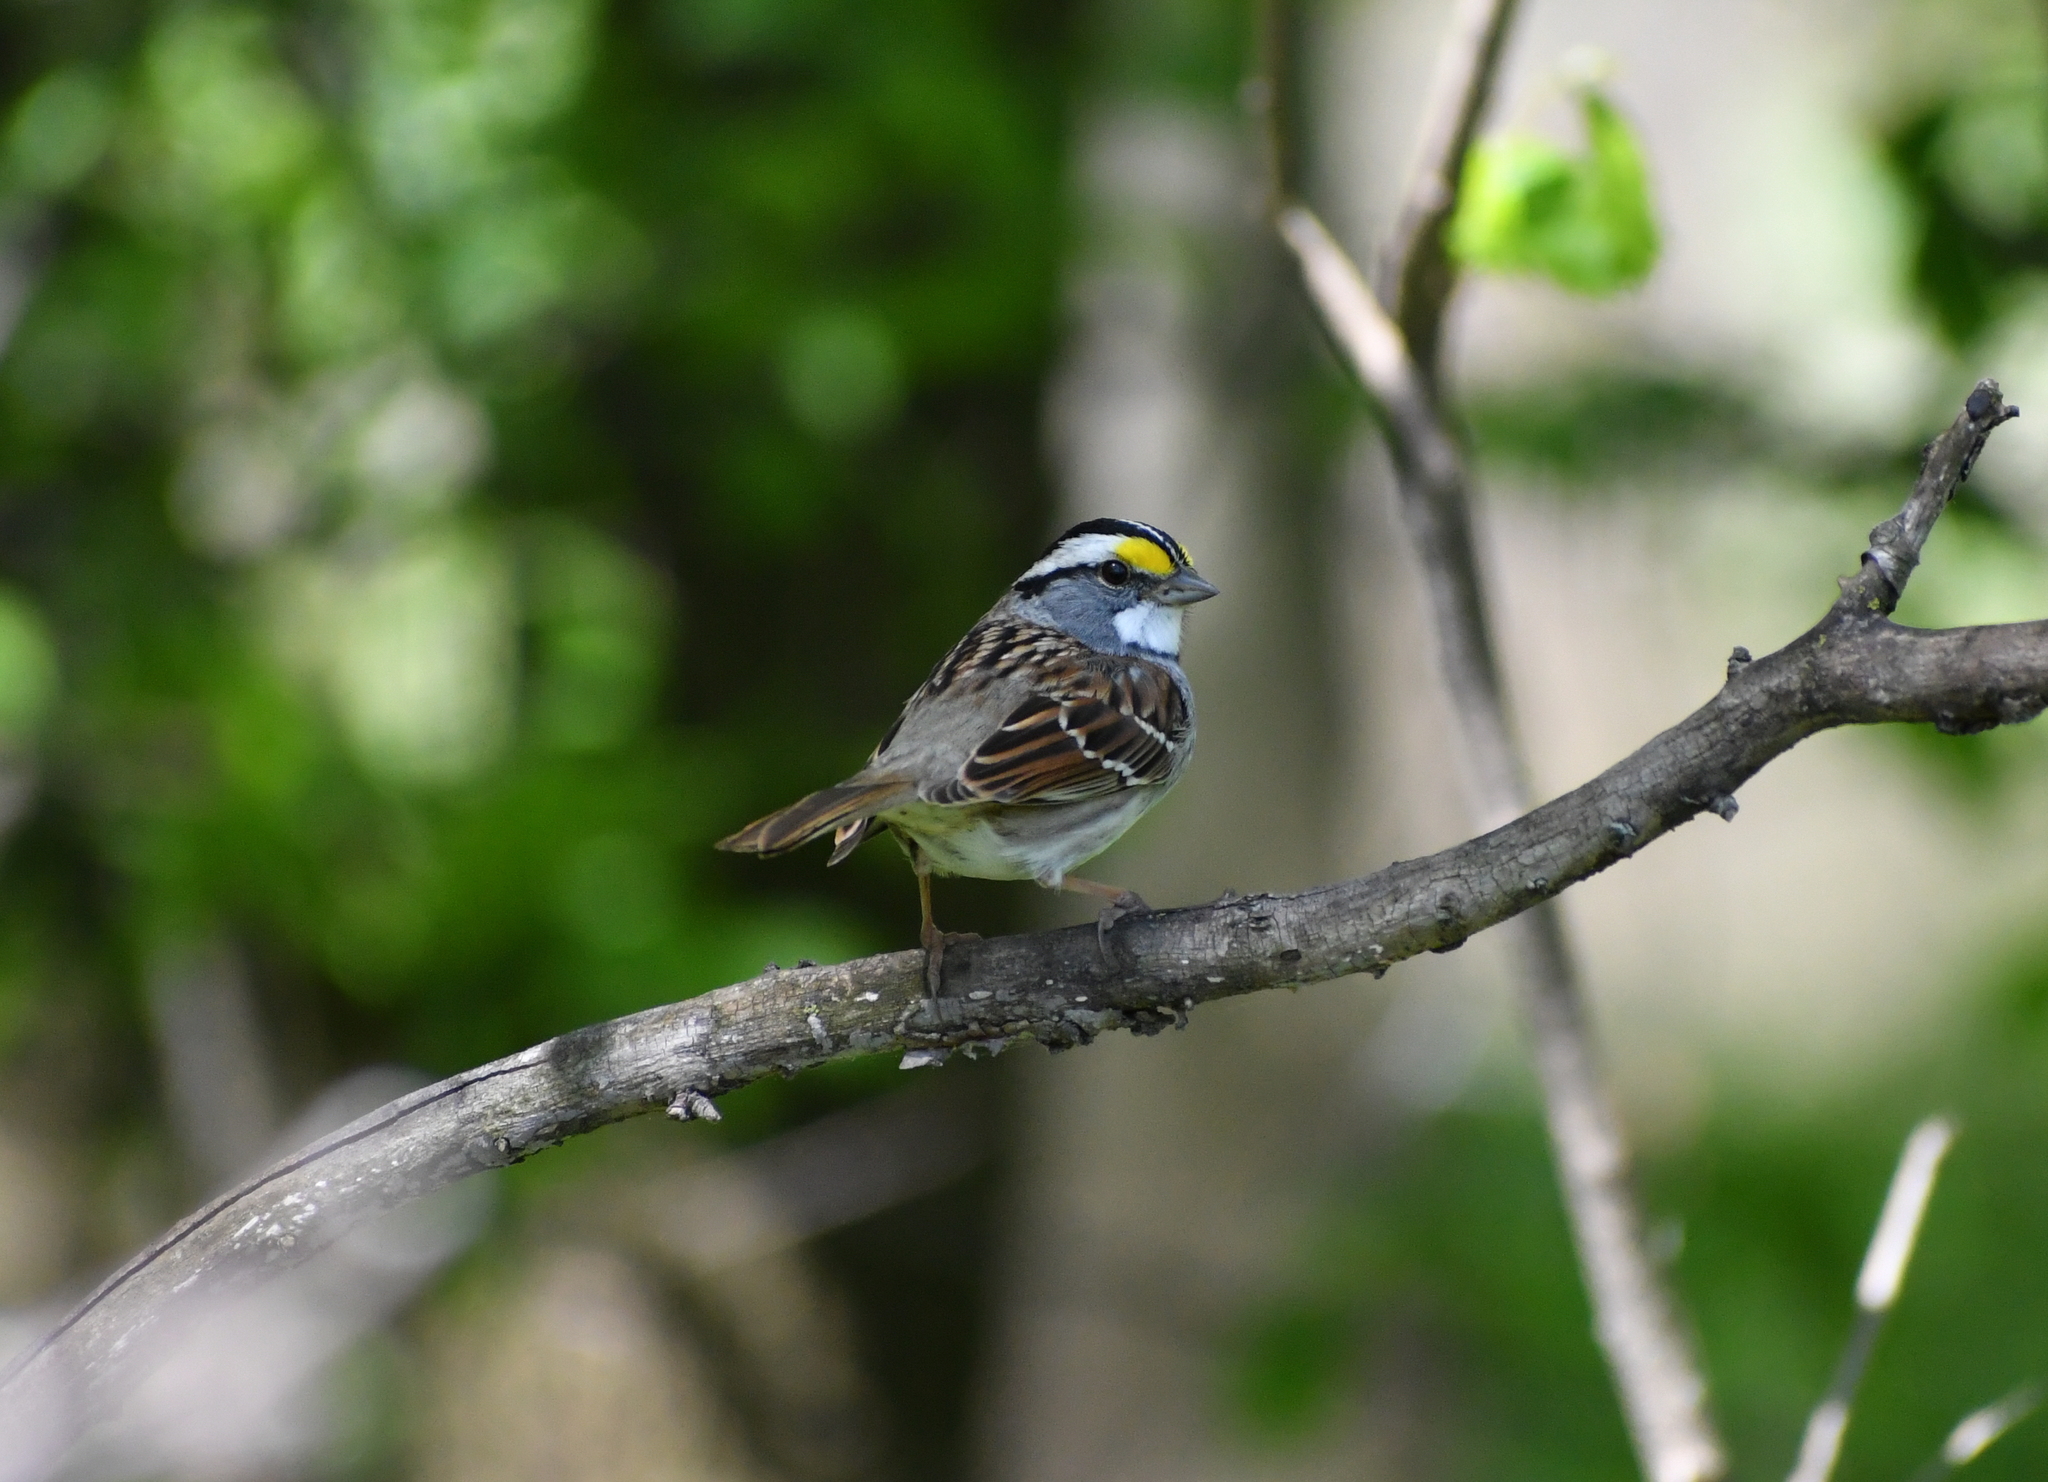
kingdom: Animalia
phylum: Chordata
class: Aves
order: Passeriformes
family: Passerellidae
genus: Zonotrichia
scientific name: Zonotrichia albicollis
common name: White-throated sparrow
